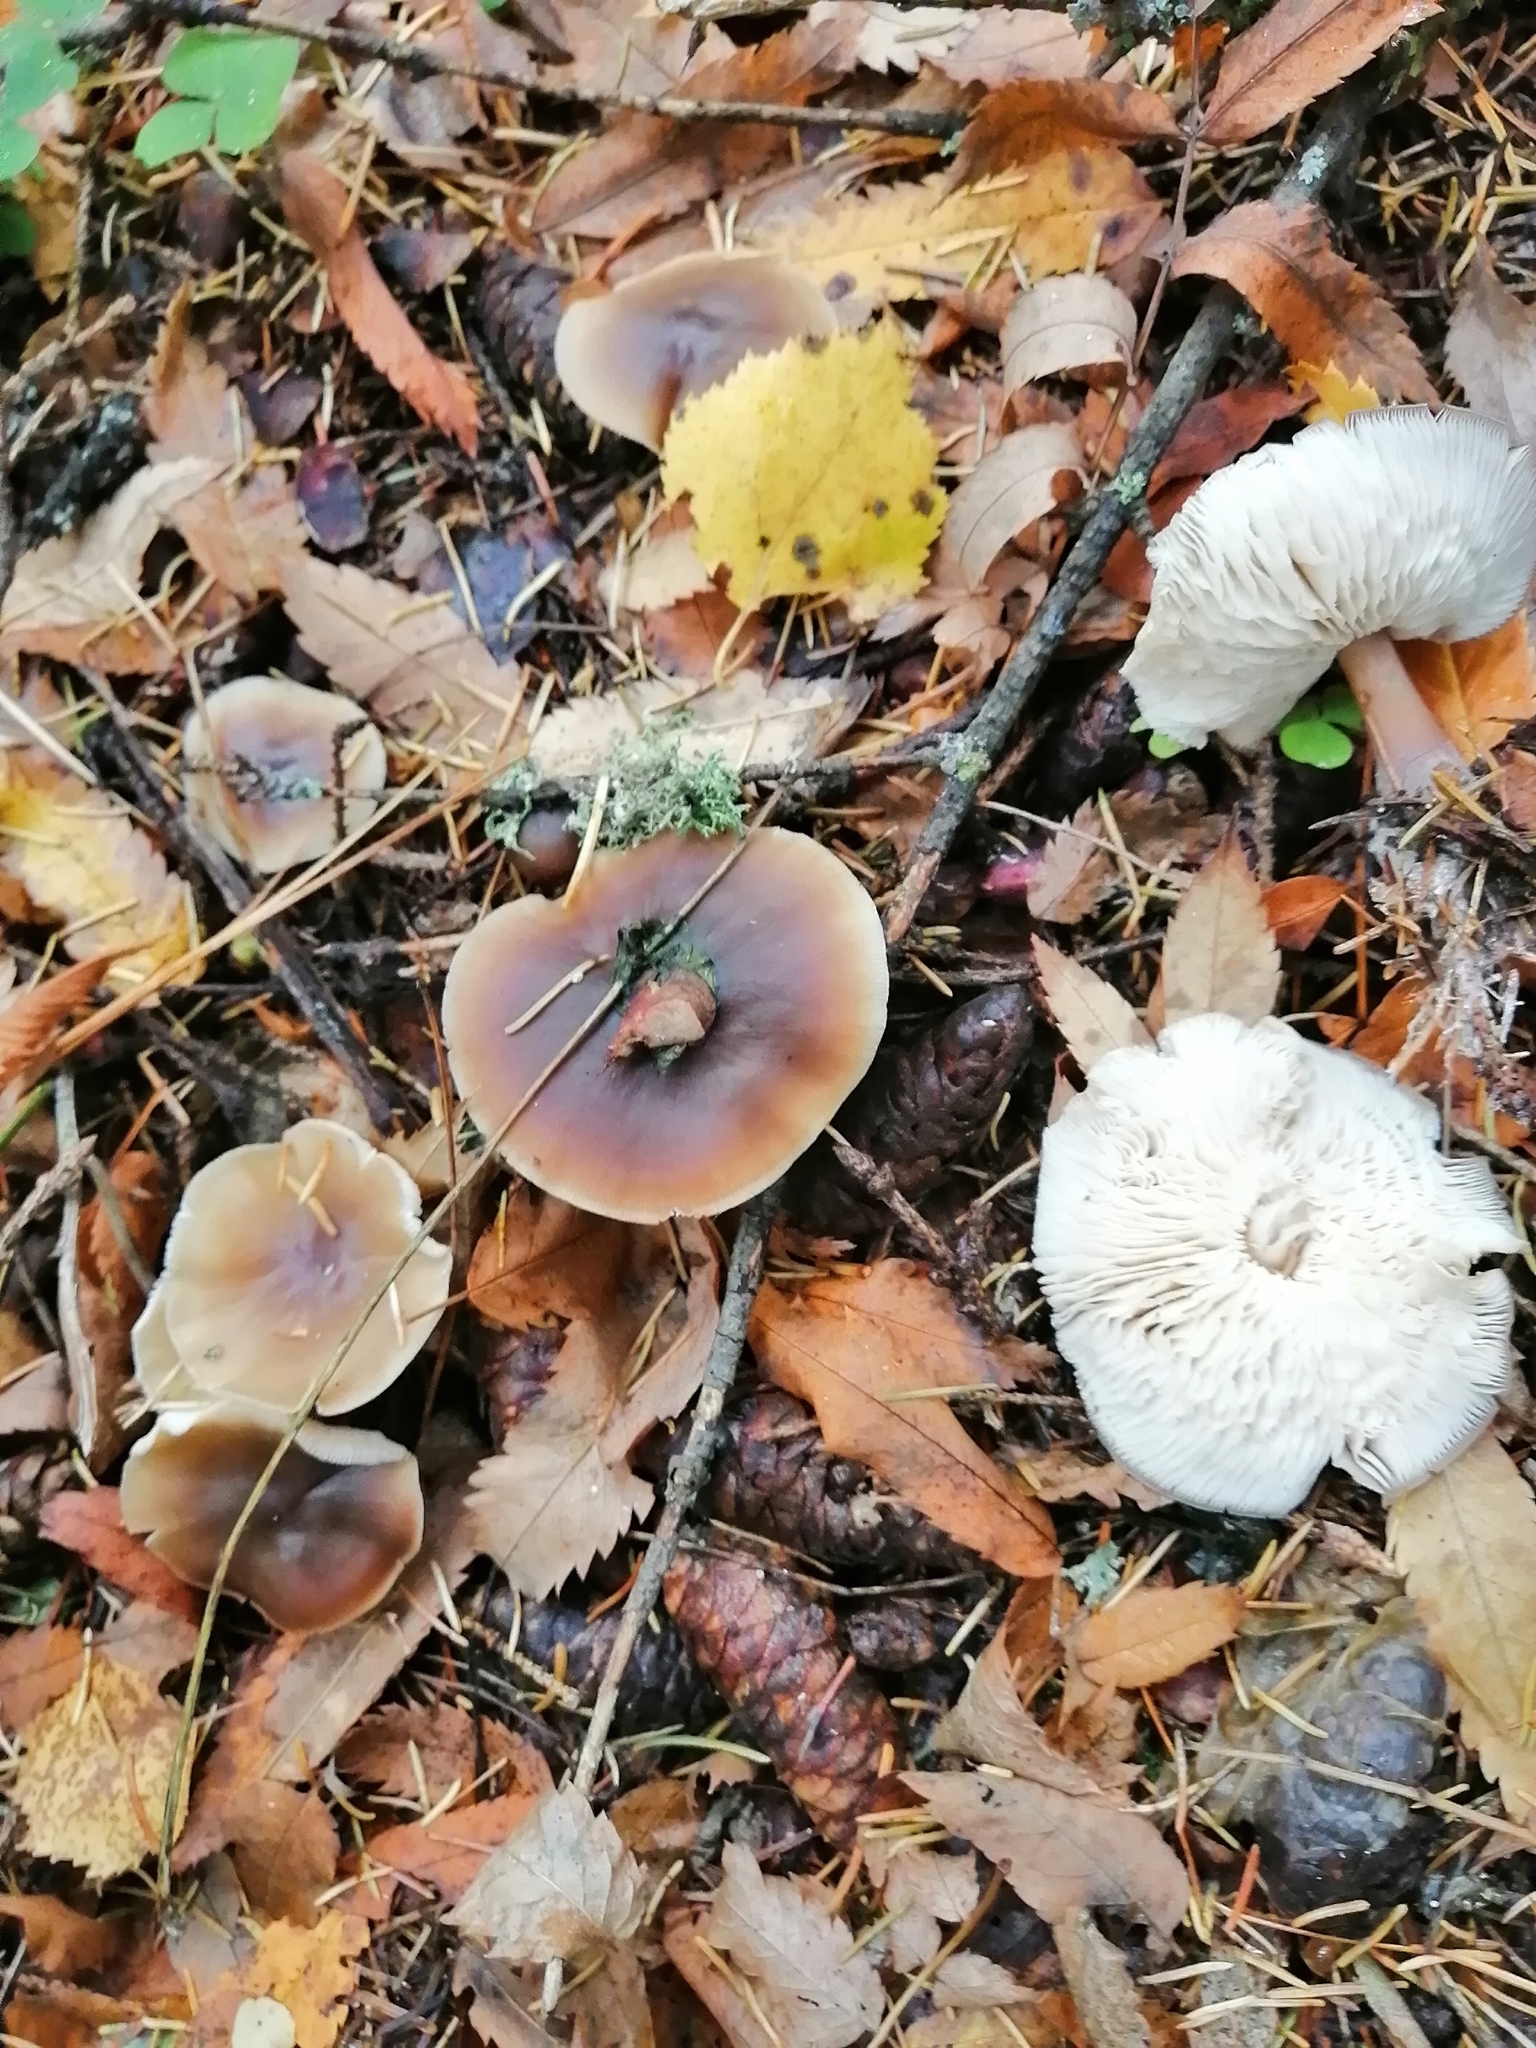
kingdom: Fungi
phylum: Basidiomycota
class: Agaricomycetes
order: Agaricales
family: Omphalotaceae
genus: Rhodocollybia
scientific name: Rhodocollybia butyracea
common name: Butter cap
